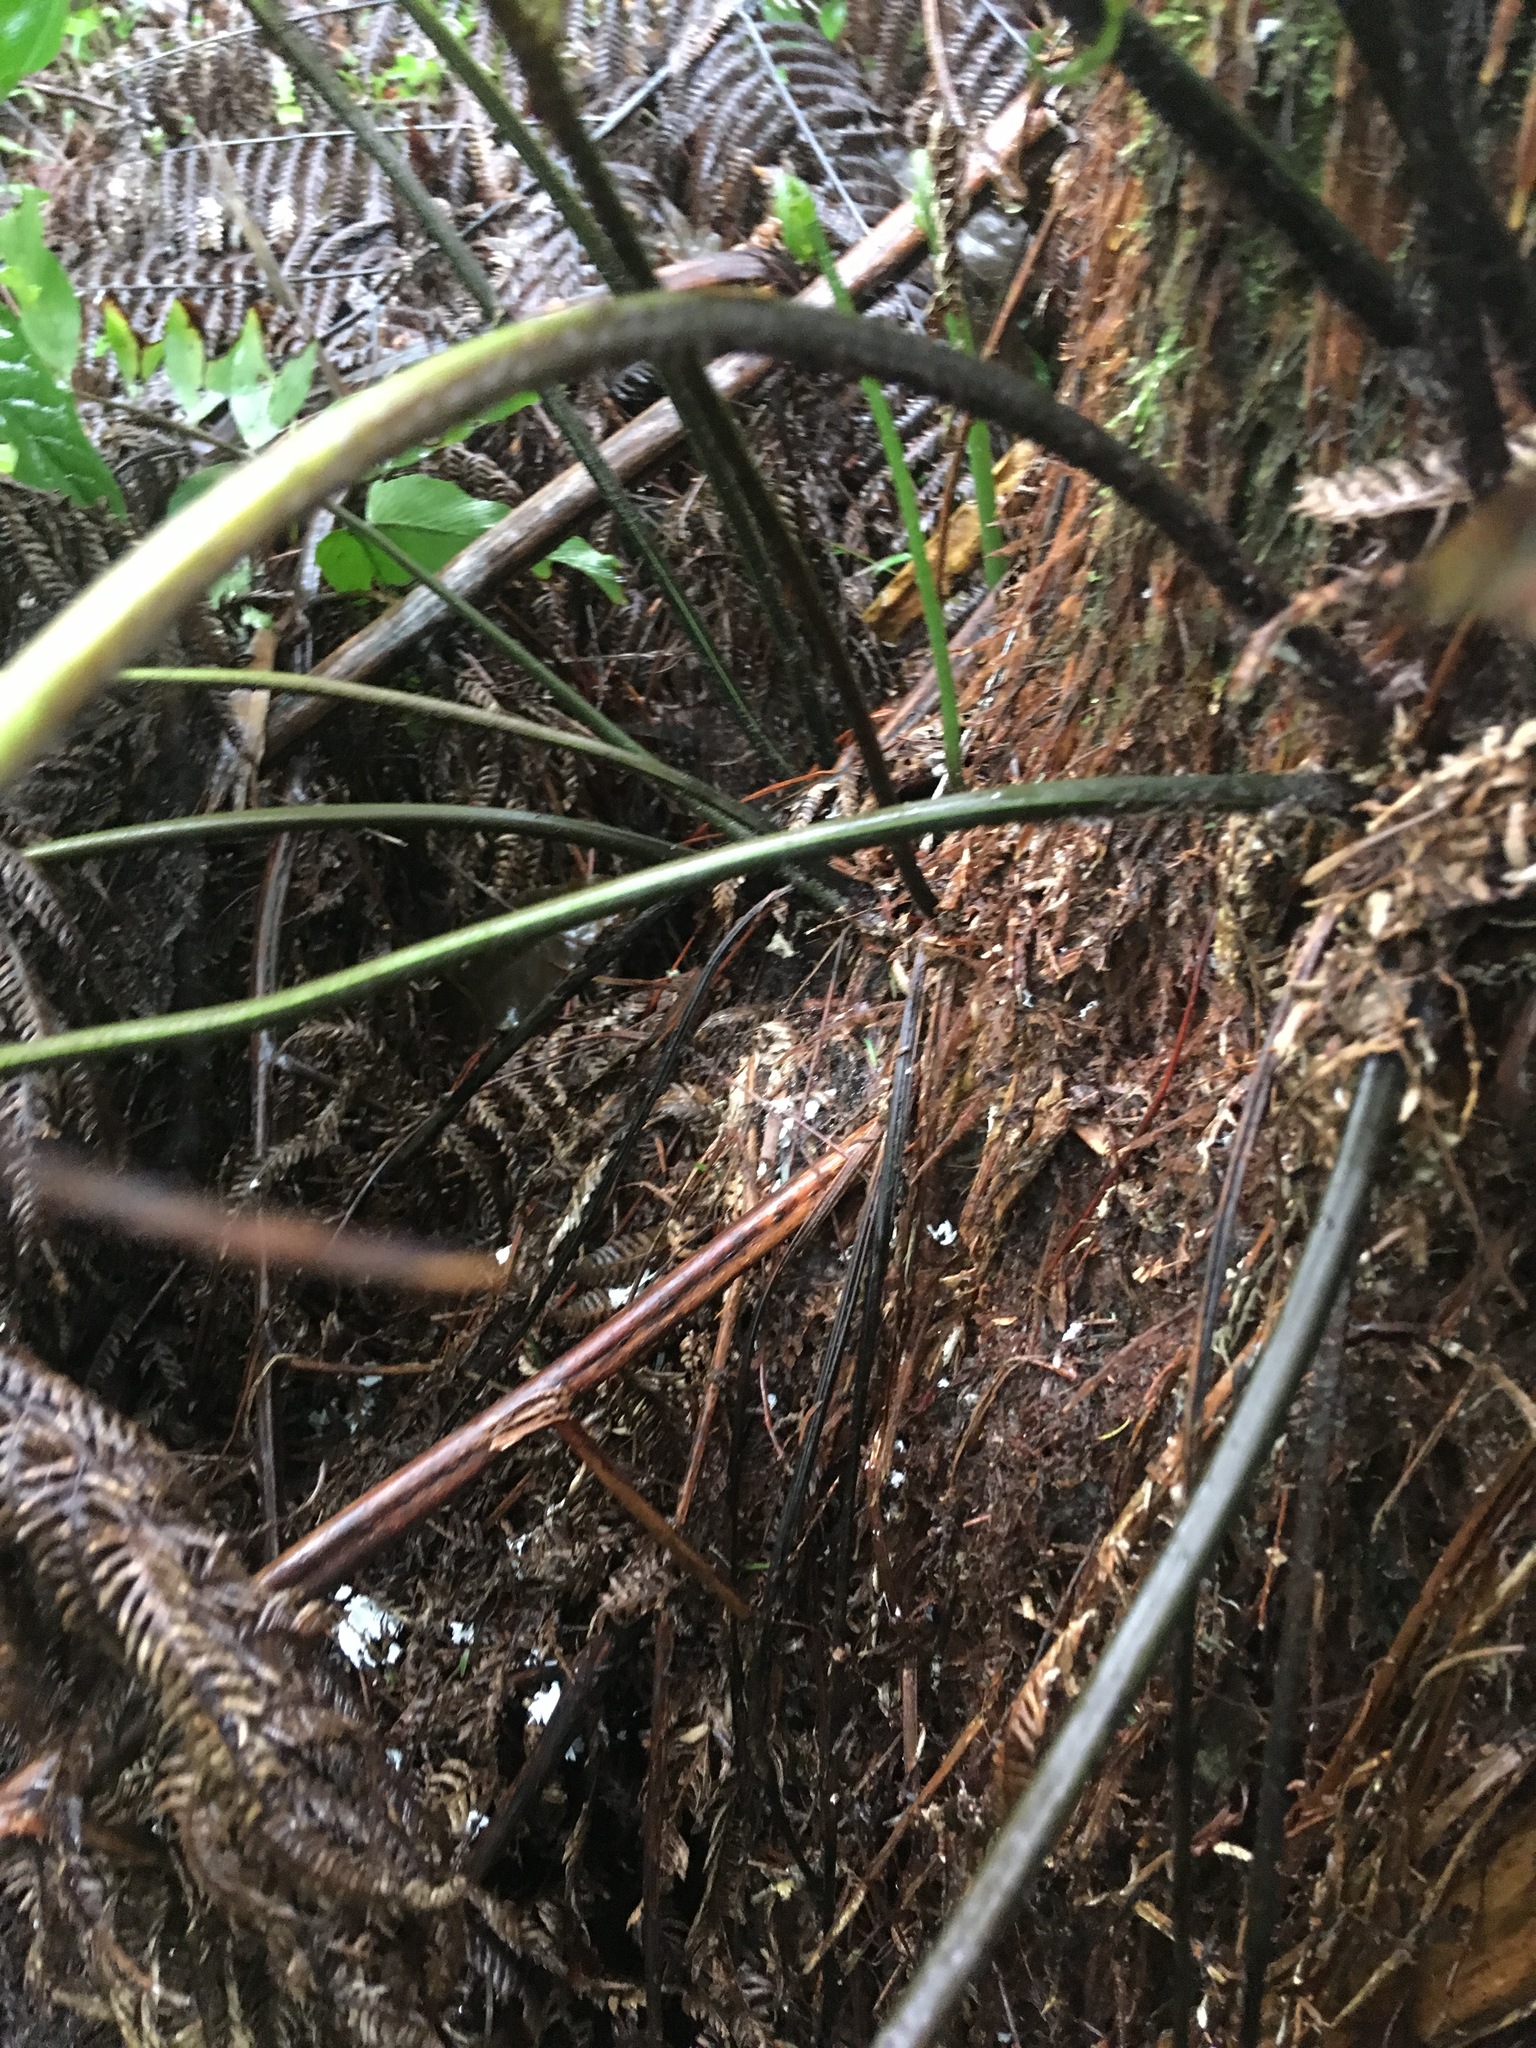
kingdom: Plantae
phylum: Tracheophyta
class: Polypodiopsida
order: Polypodiales
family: Aspleniaceae
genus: Asplenium
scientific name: Asplenium oblongifolium
